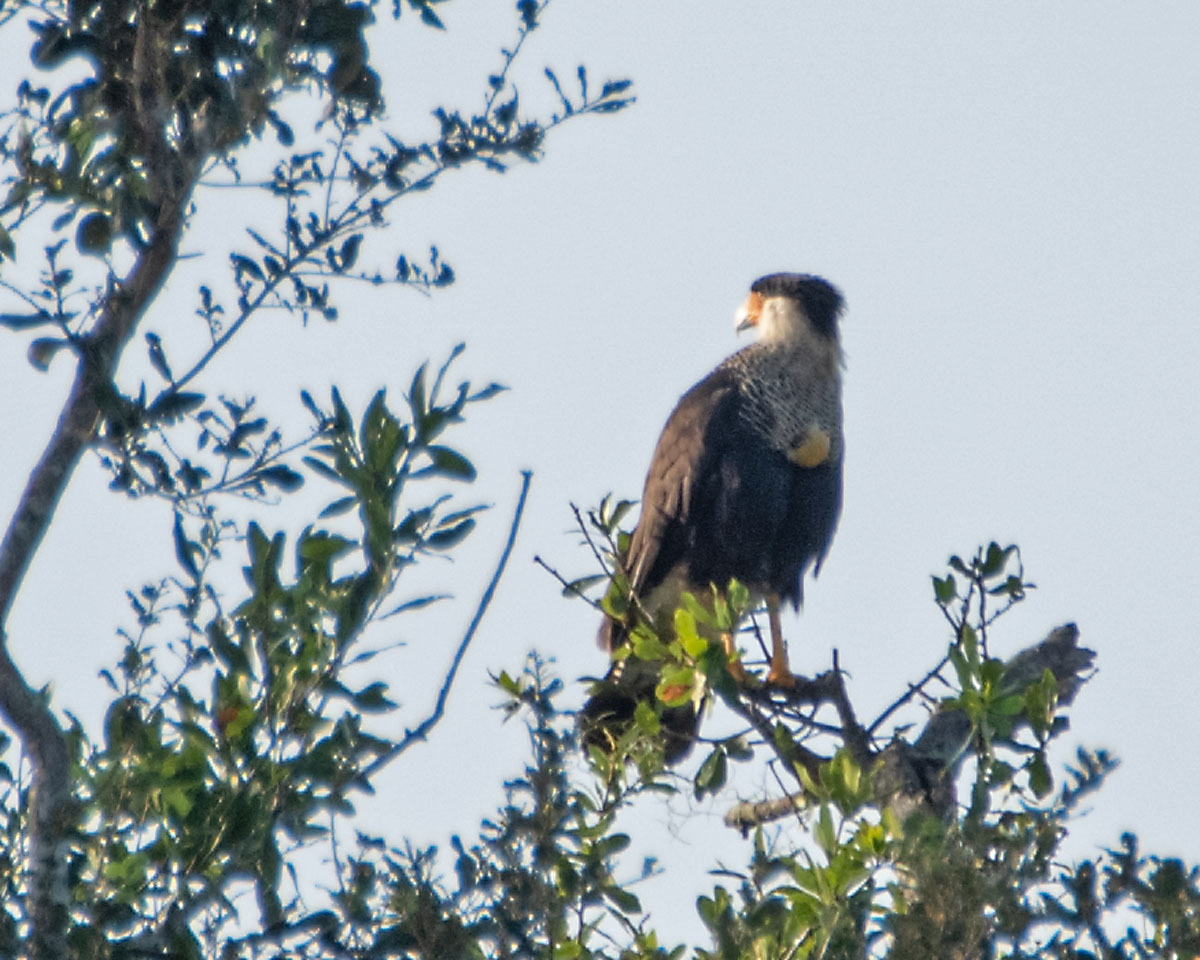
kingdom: Animalia
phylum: Chordata
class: Aves
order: Falconiformes
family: Falconidae
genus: Caracara
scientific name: Caracara plancus
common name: Southern caracara
